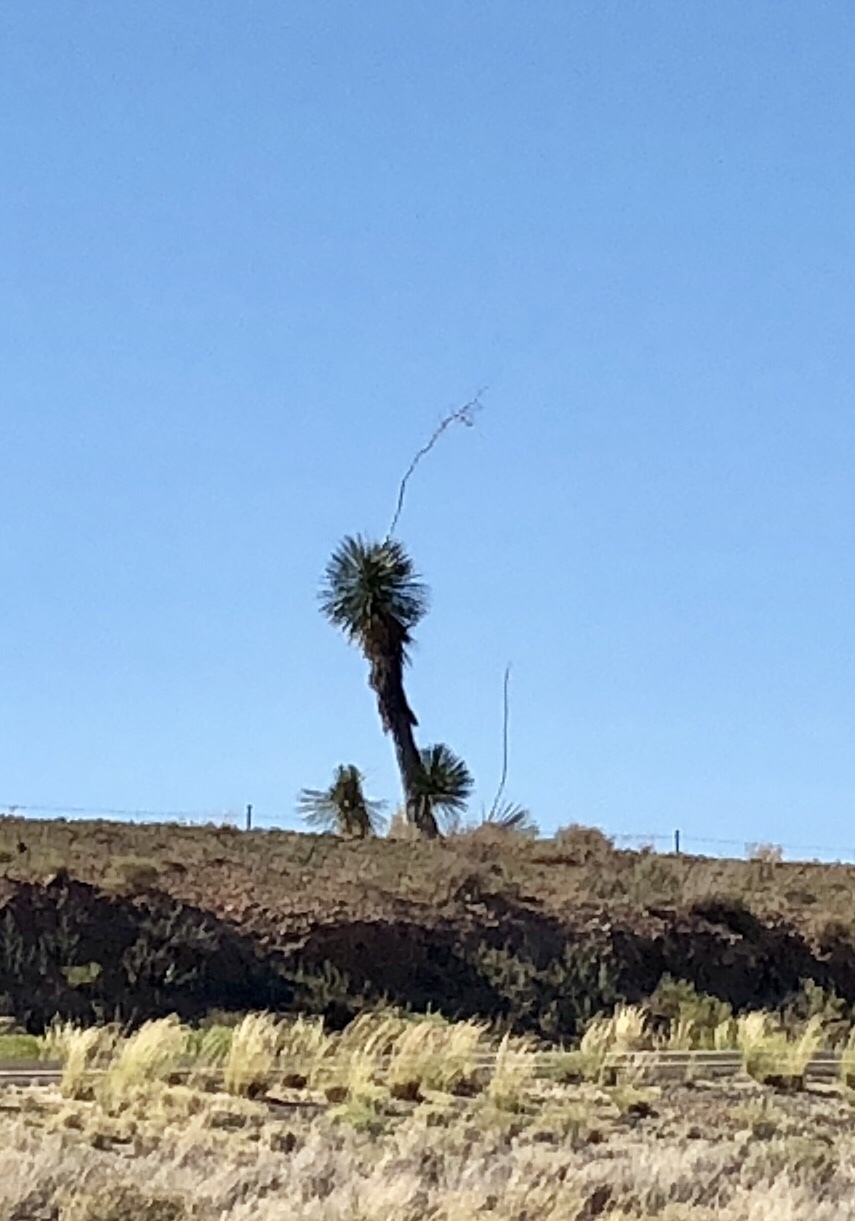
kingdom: Plantae
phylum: Tracheophyta
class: Liliopsida
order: Asparagales
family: Asparagaceae
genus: Yucca
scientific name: Yucca elata
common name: Palmella
